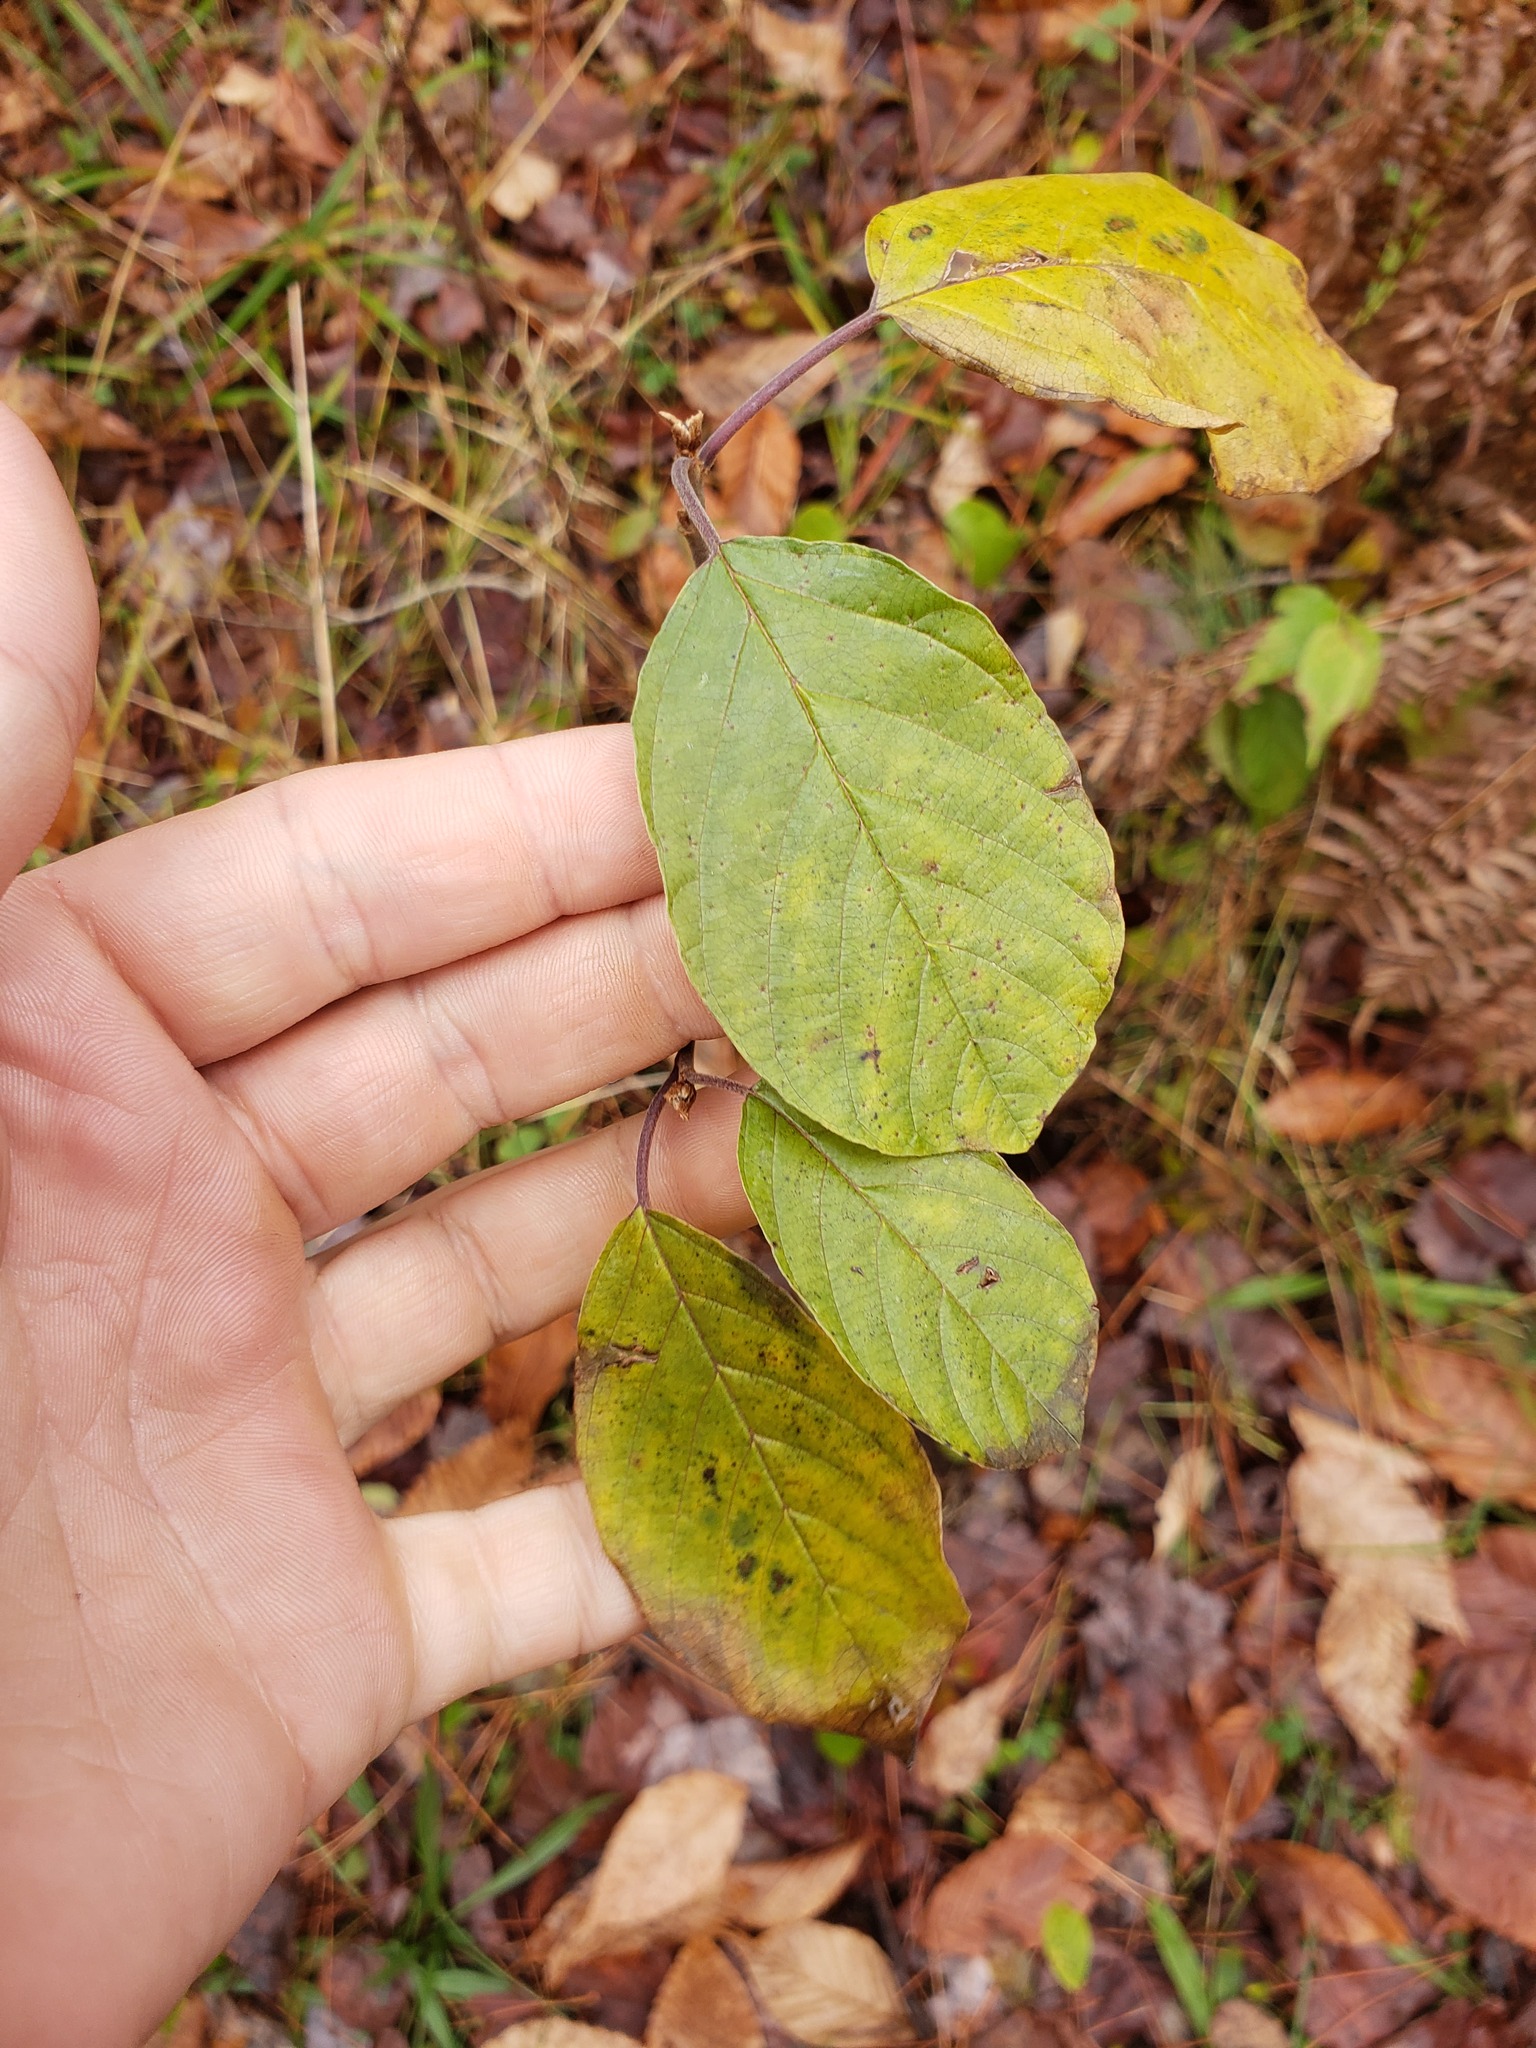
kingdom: Plantae
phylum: Tracheophyta
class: Magnoliopsida
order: Rosales
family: Rhamnaceae
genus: Frangula
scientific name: Frangula alnus
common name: Alder buckthorn
